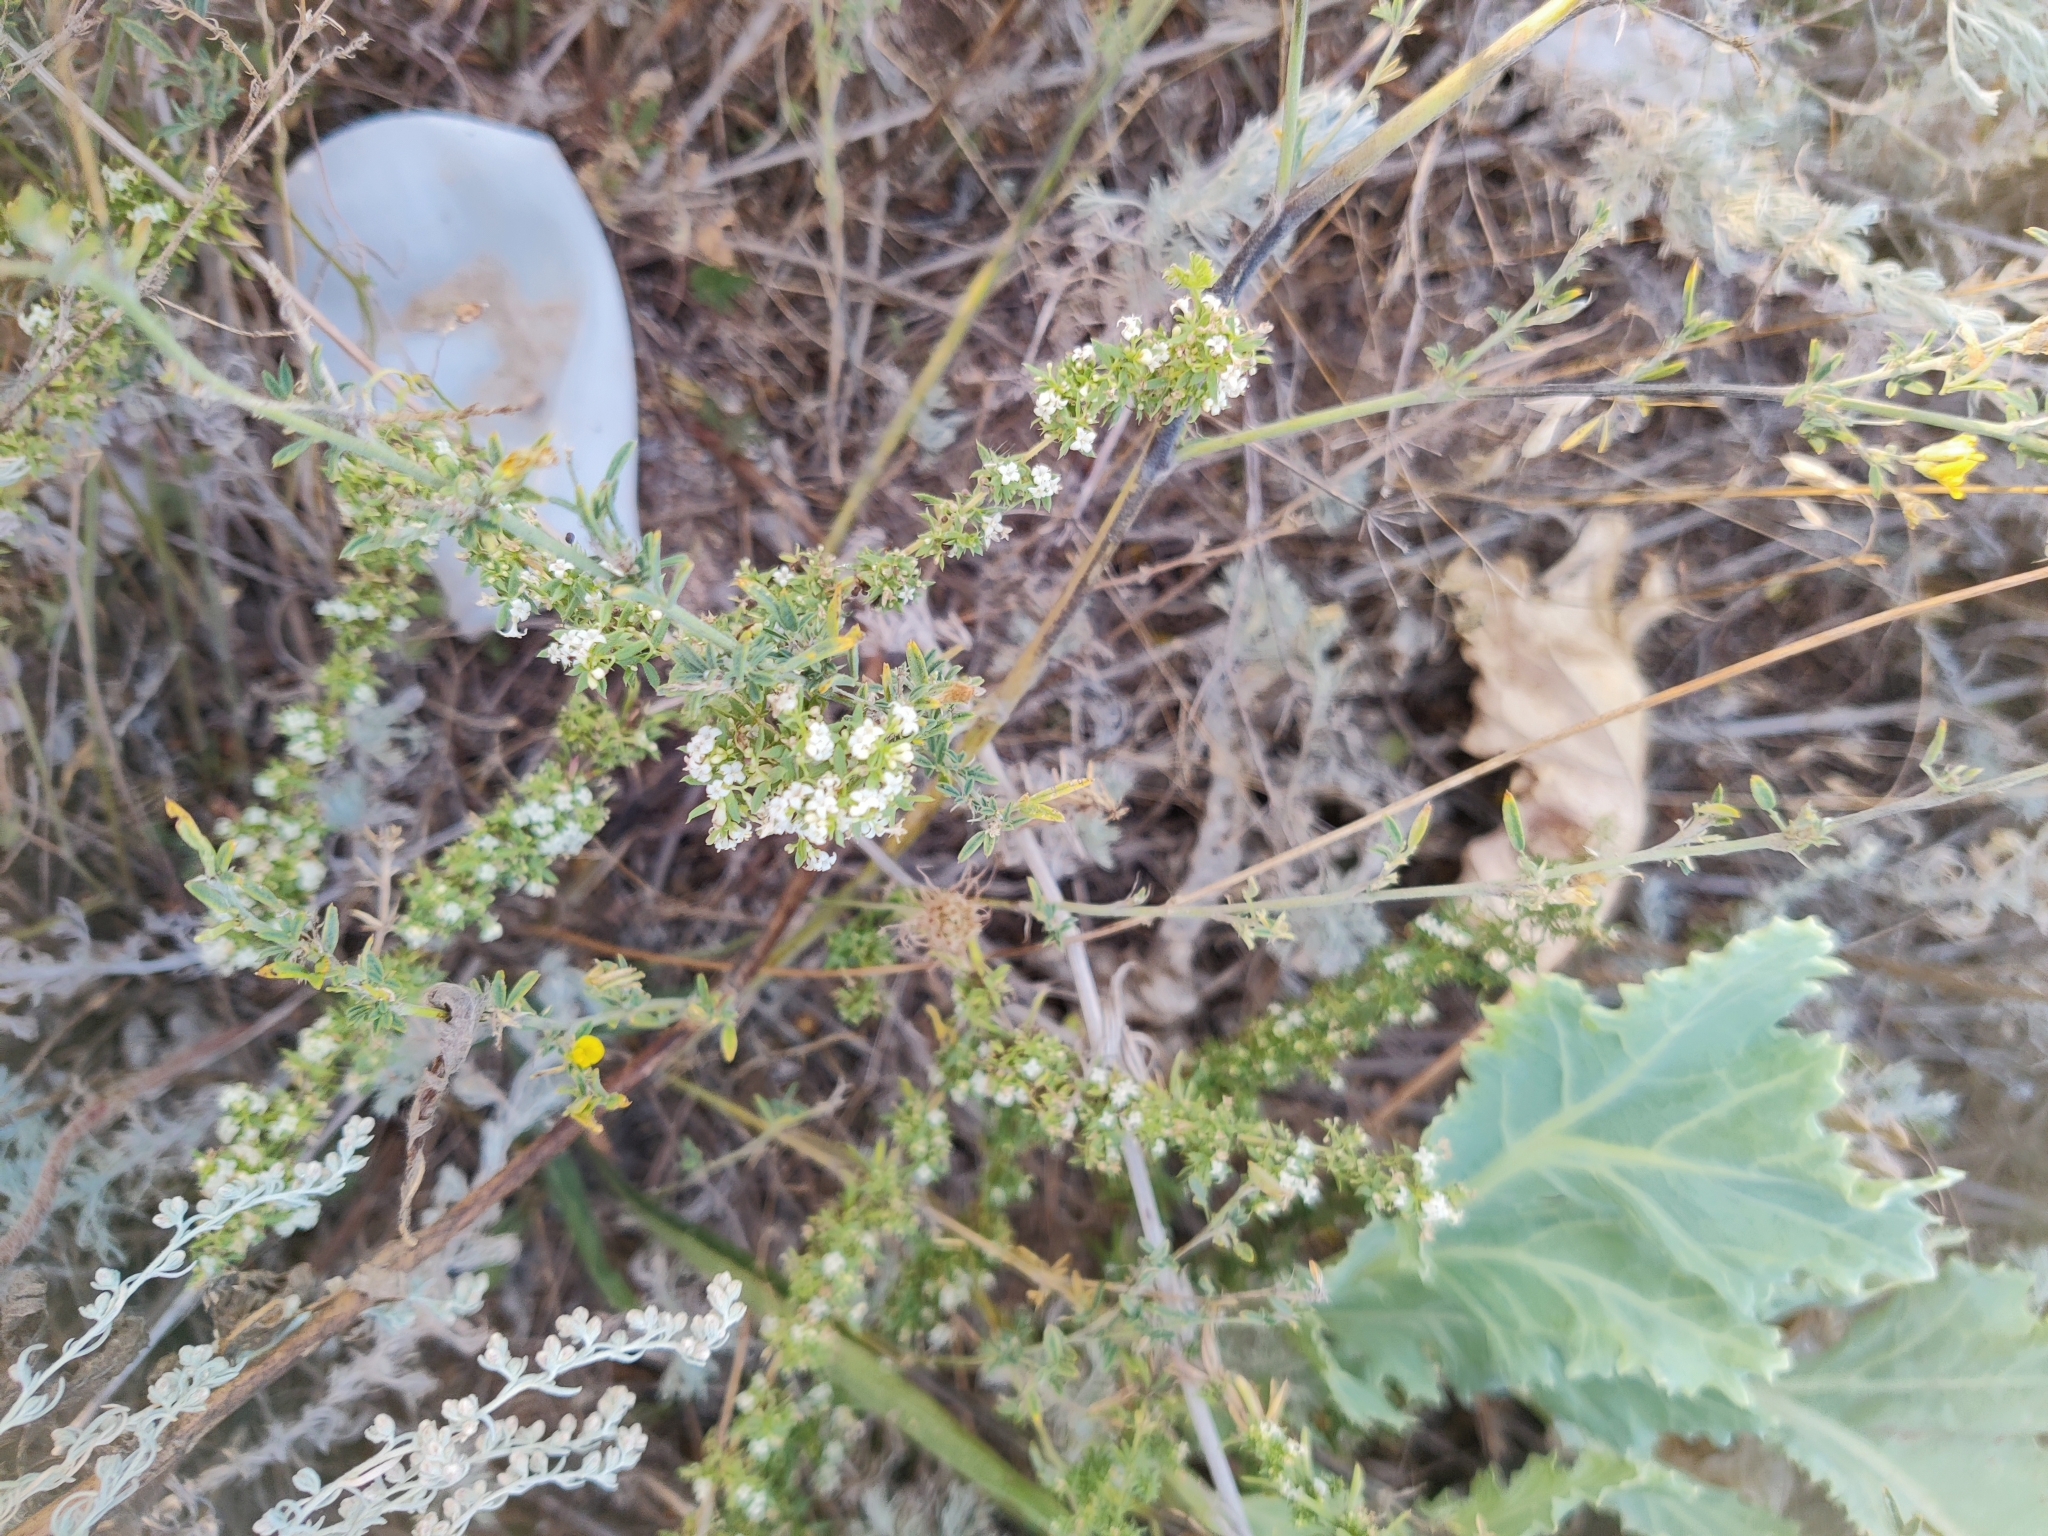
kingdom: Plantae
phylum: Tracheophyta
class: Magnoliopsida
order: Gentianales
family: Rubiaceae
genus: Galium
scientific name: Galium humifusum
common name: Spreading bedstraw
